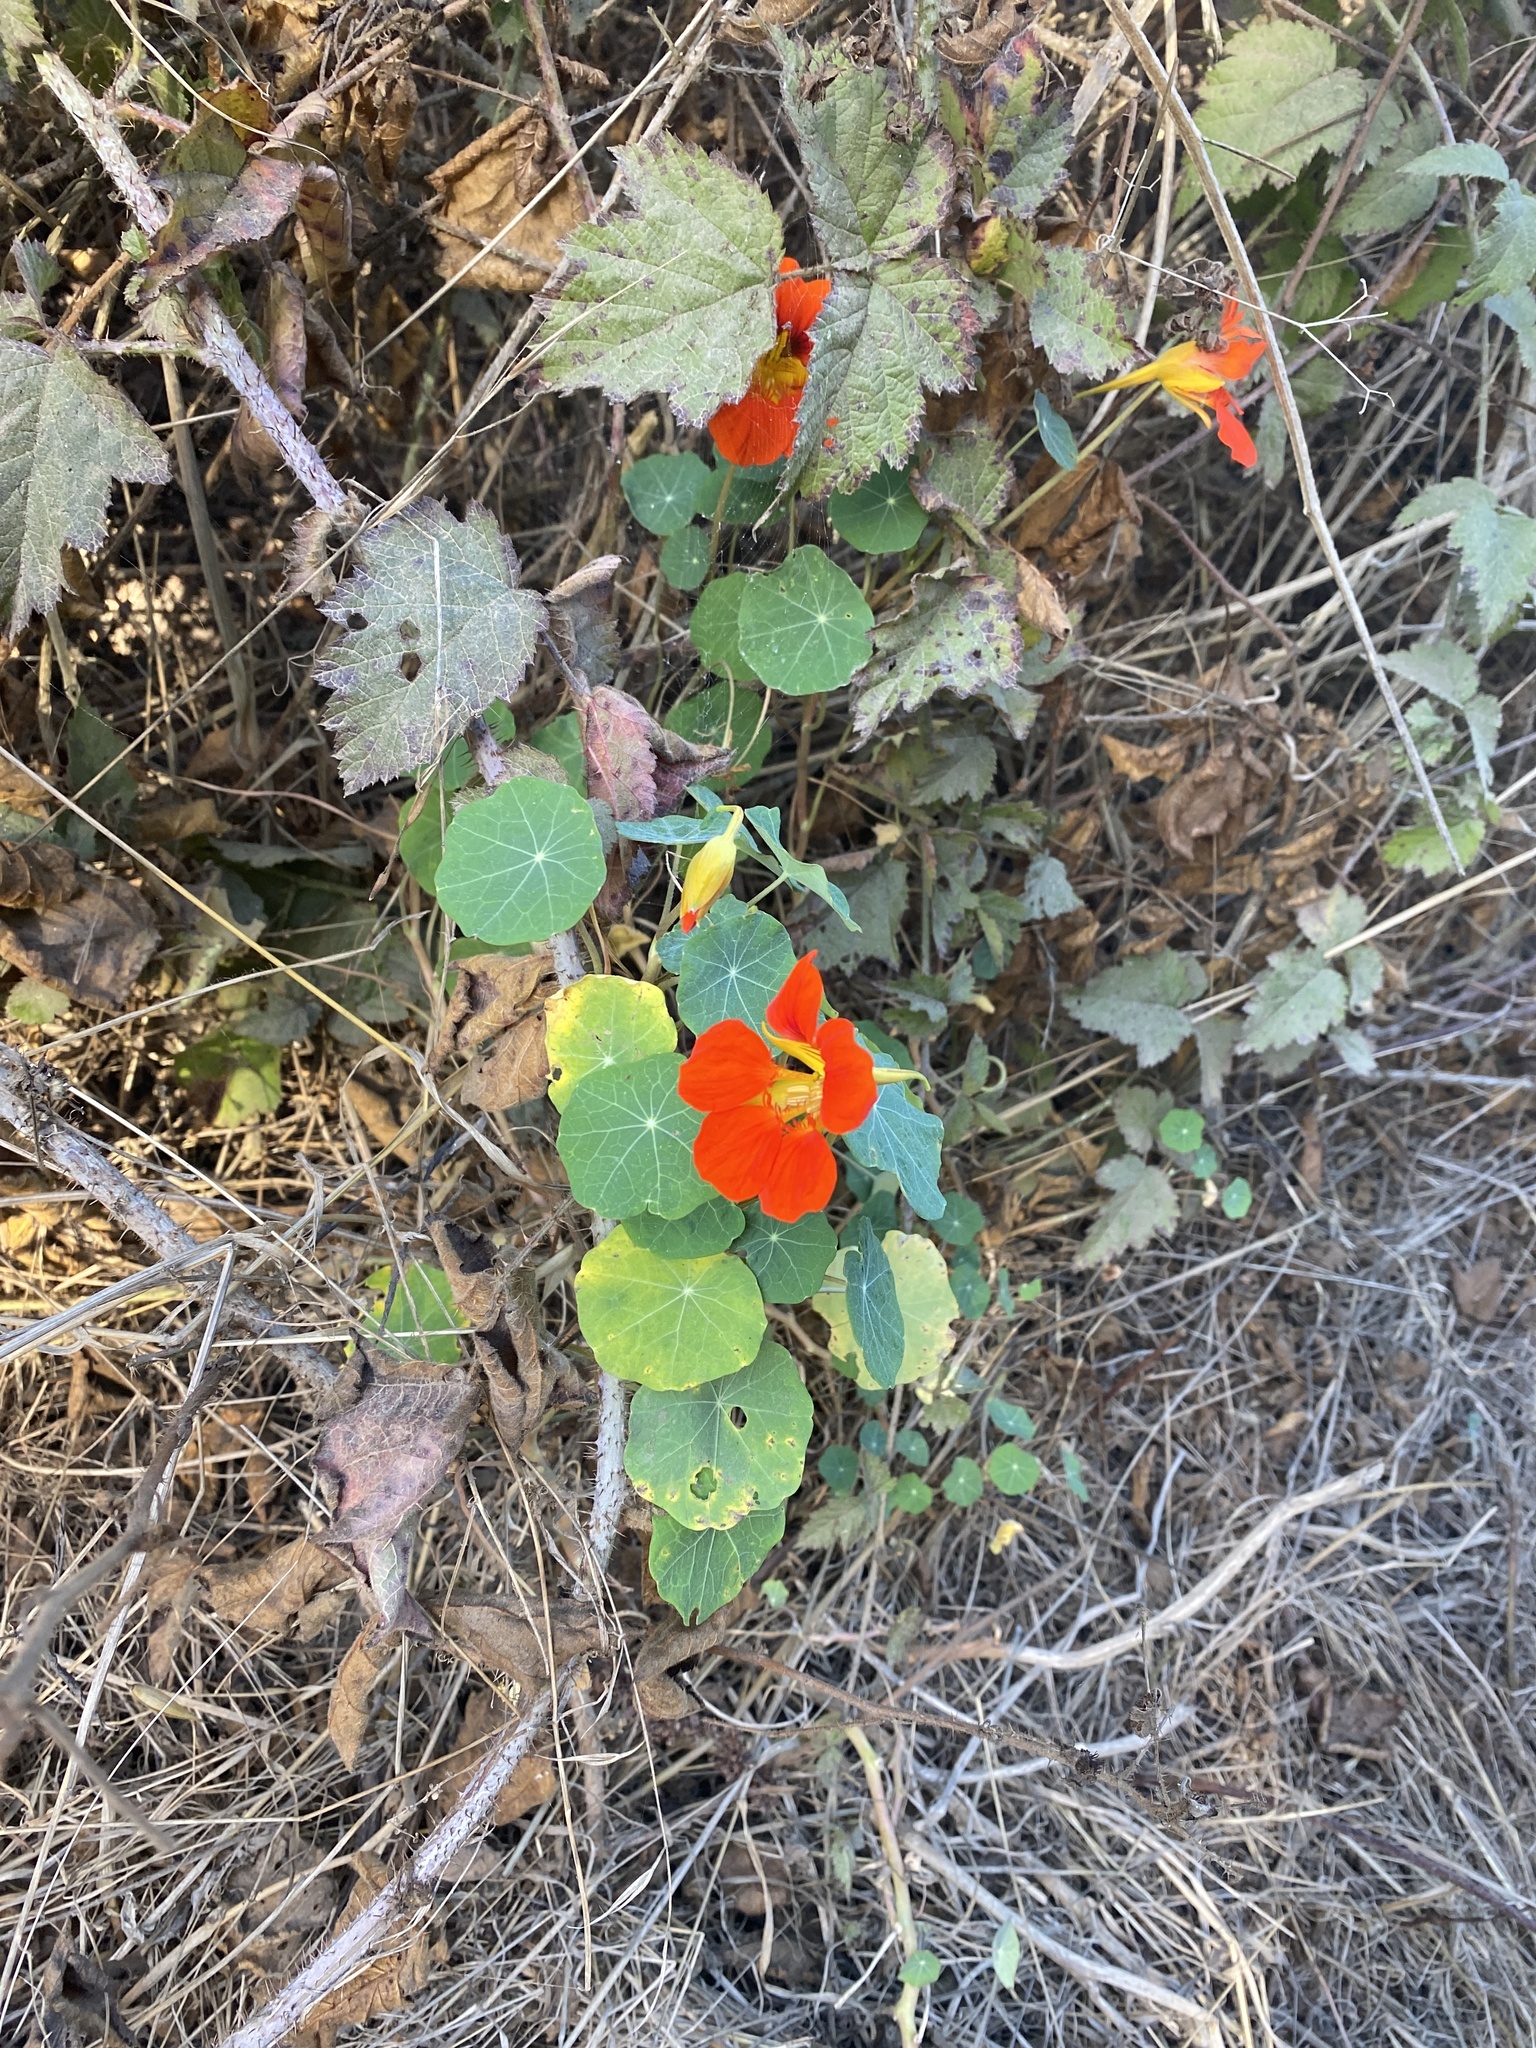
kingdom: Plantae
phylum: Tracheophyta
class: Magnoliopsida
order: Brassicales
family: Tropaeolaceae
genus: Tropaeolum
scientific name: Tropaeolum majus
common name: Nasturtium
